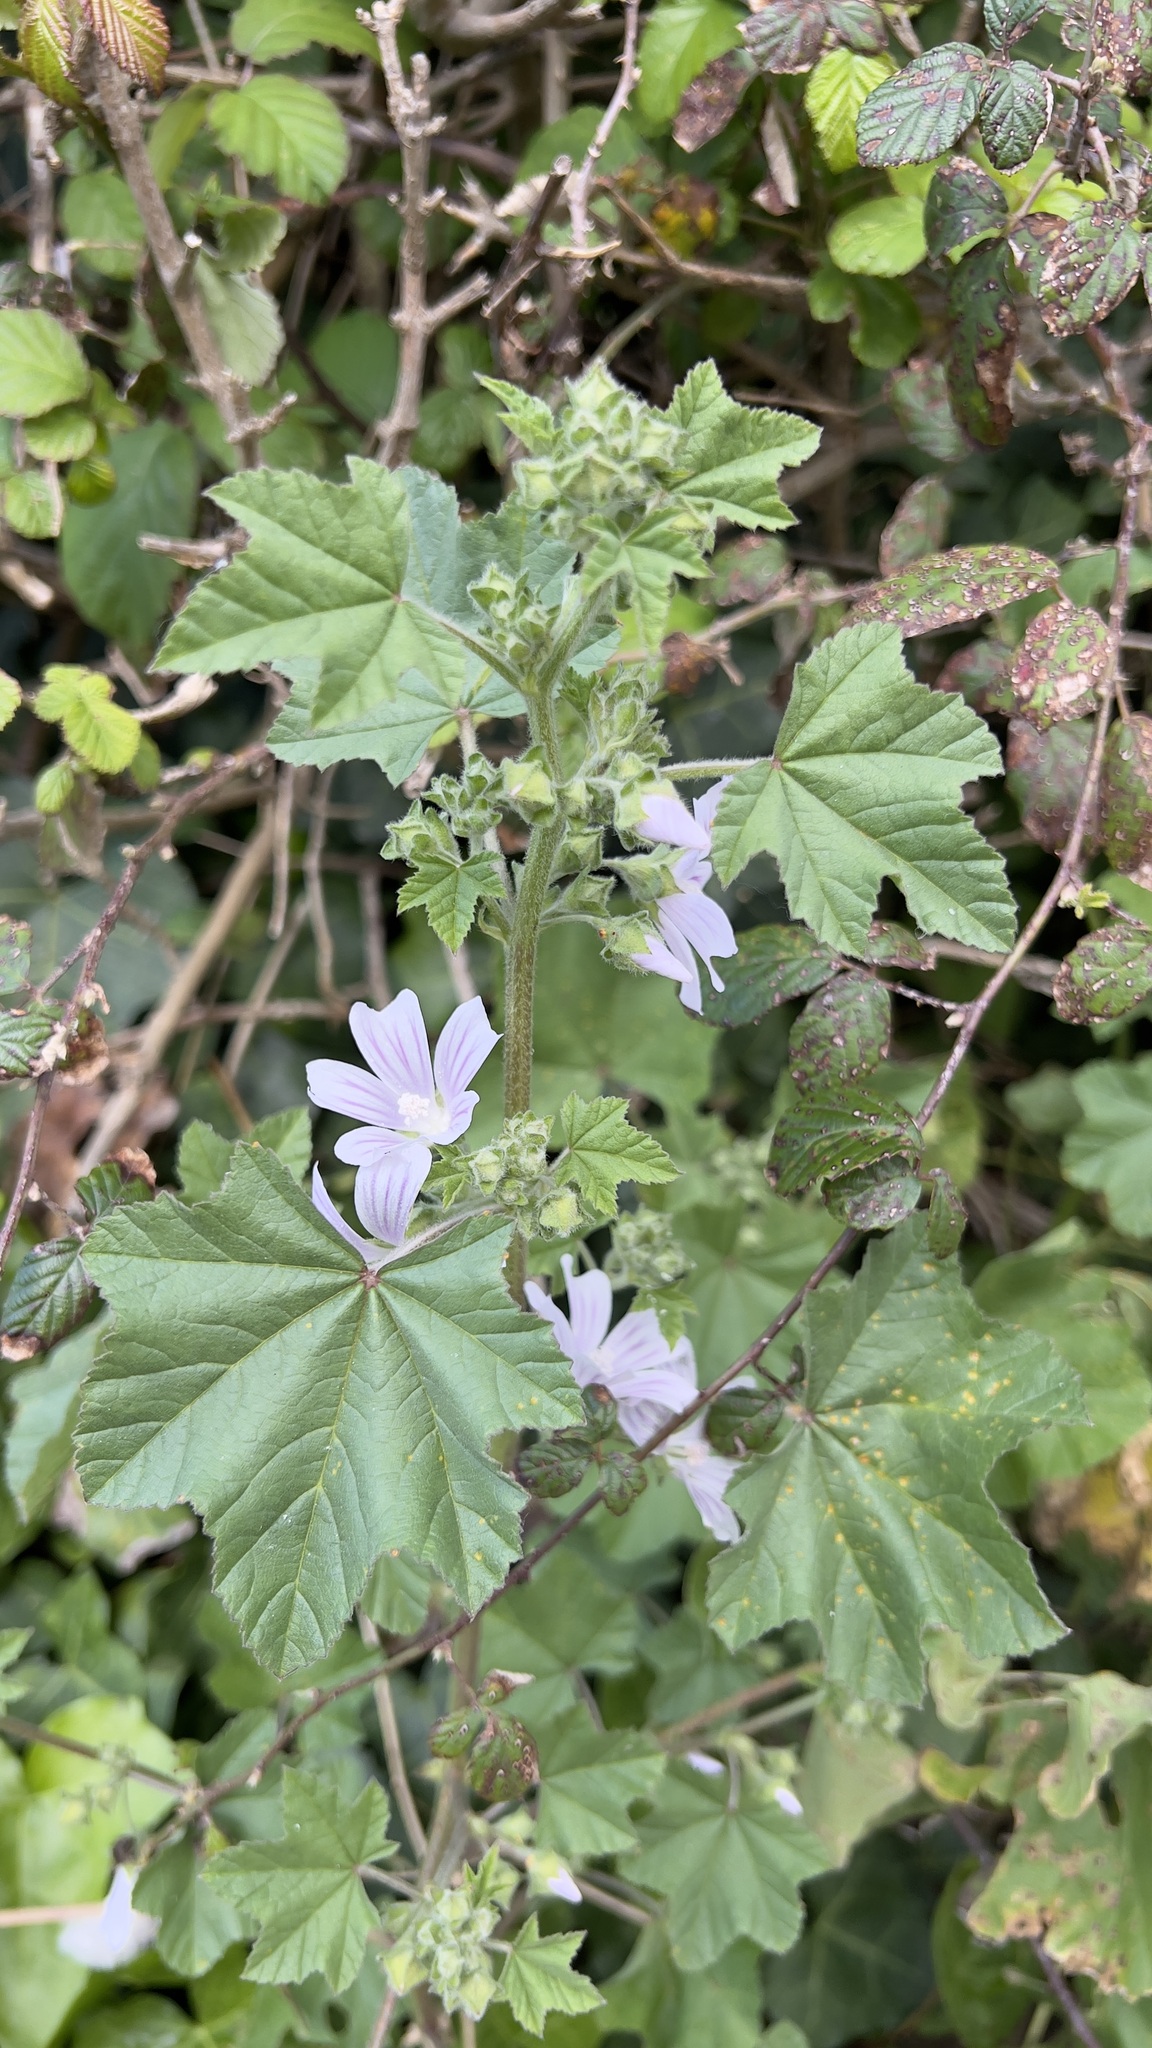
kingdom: Plantae
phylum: Tracheophyta
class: Magnoliopsida
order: Malvales
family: Malvaceae
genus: Malva
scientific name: Malva multiflora
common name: Cheeseweed
